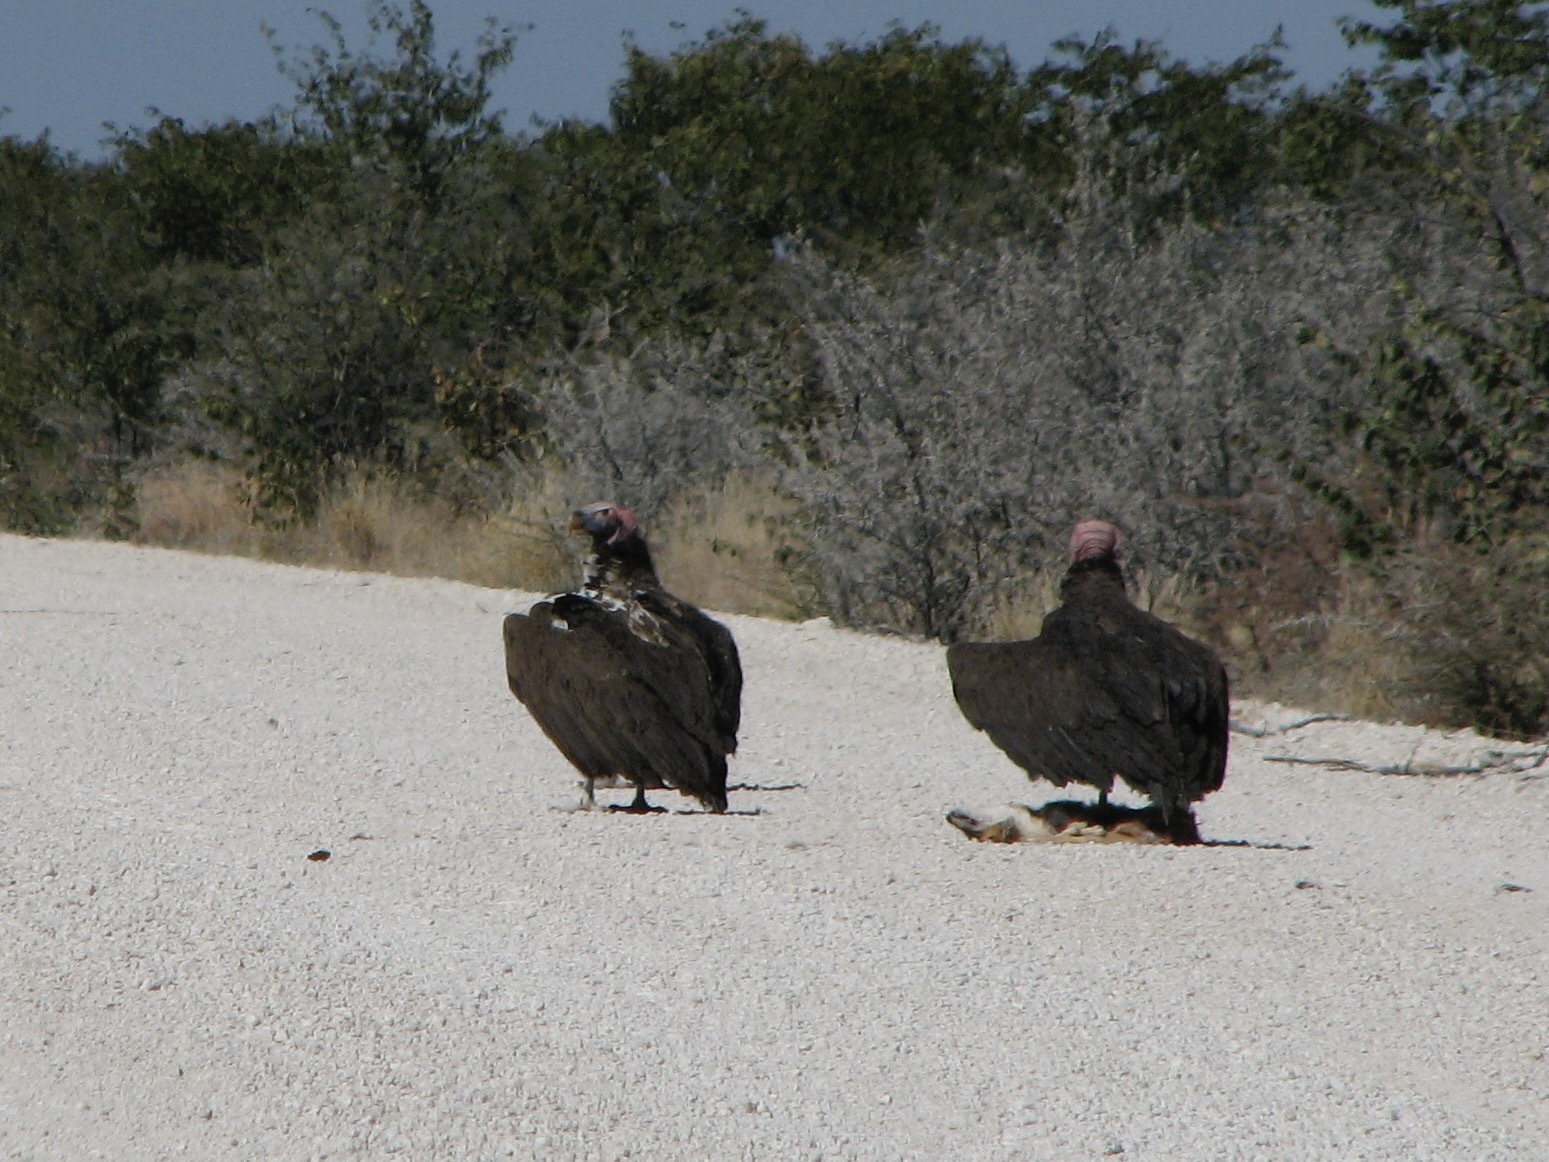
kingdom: Animalia
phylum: Chordata
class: Aves
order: Accipitriformes
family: Accipitridae
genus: Torgos
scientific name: Torgos tracheliotos
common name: Lappet-faced vulture
